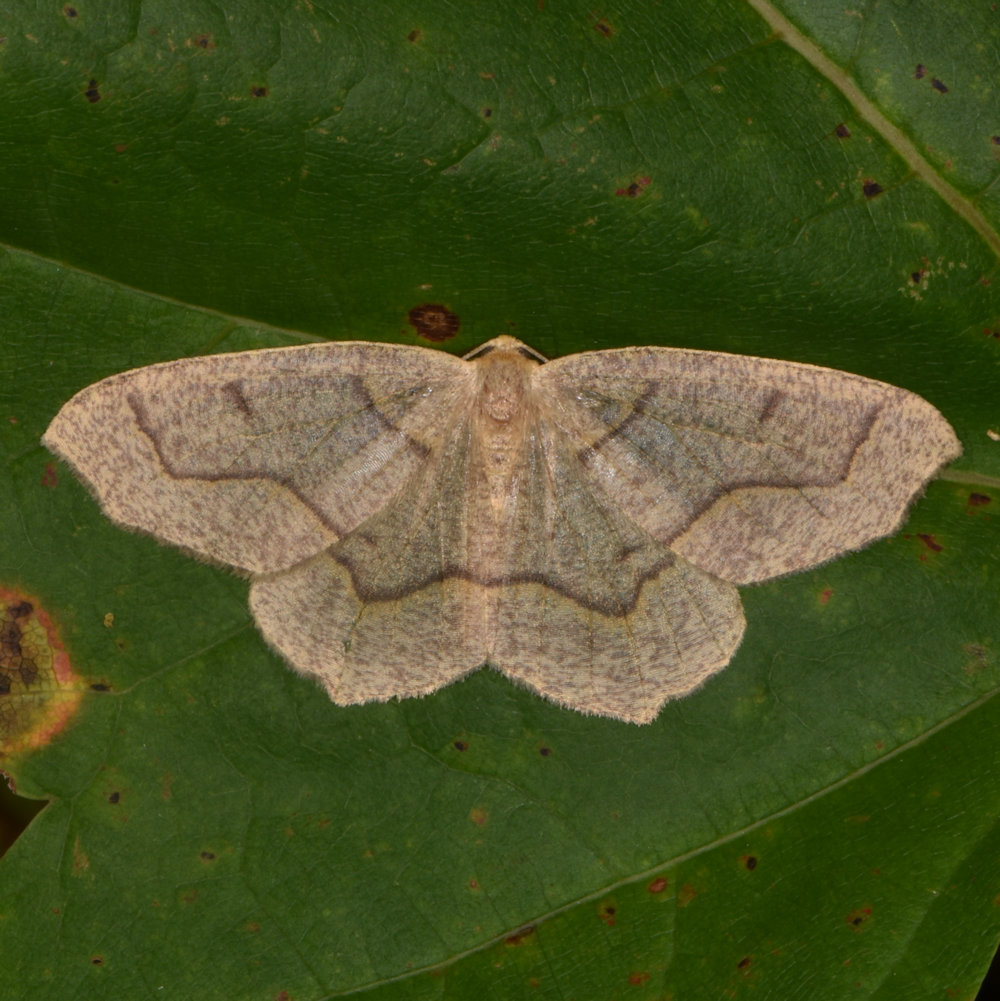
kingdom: Animalia
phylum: Arthropoda
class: Insecta
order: Lepidoptera
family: Geometridae
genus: Lambdina
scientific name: Lambdina fiscellaria
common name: Hemlock looper
